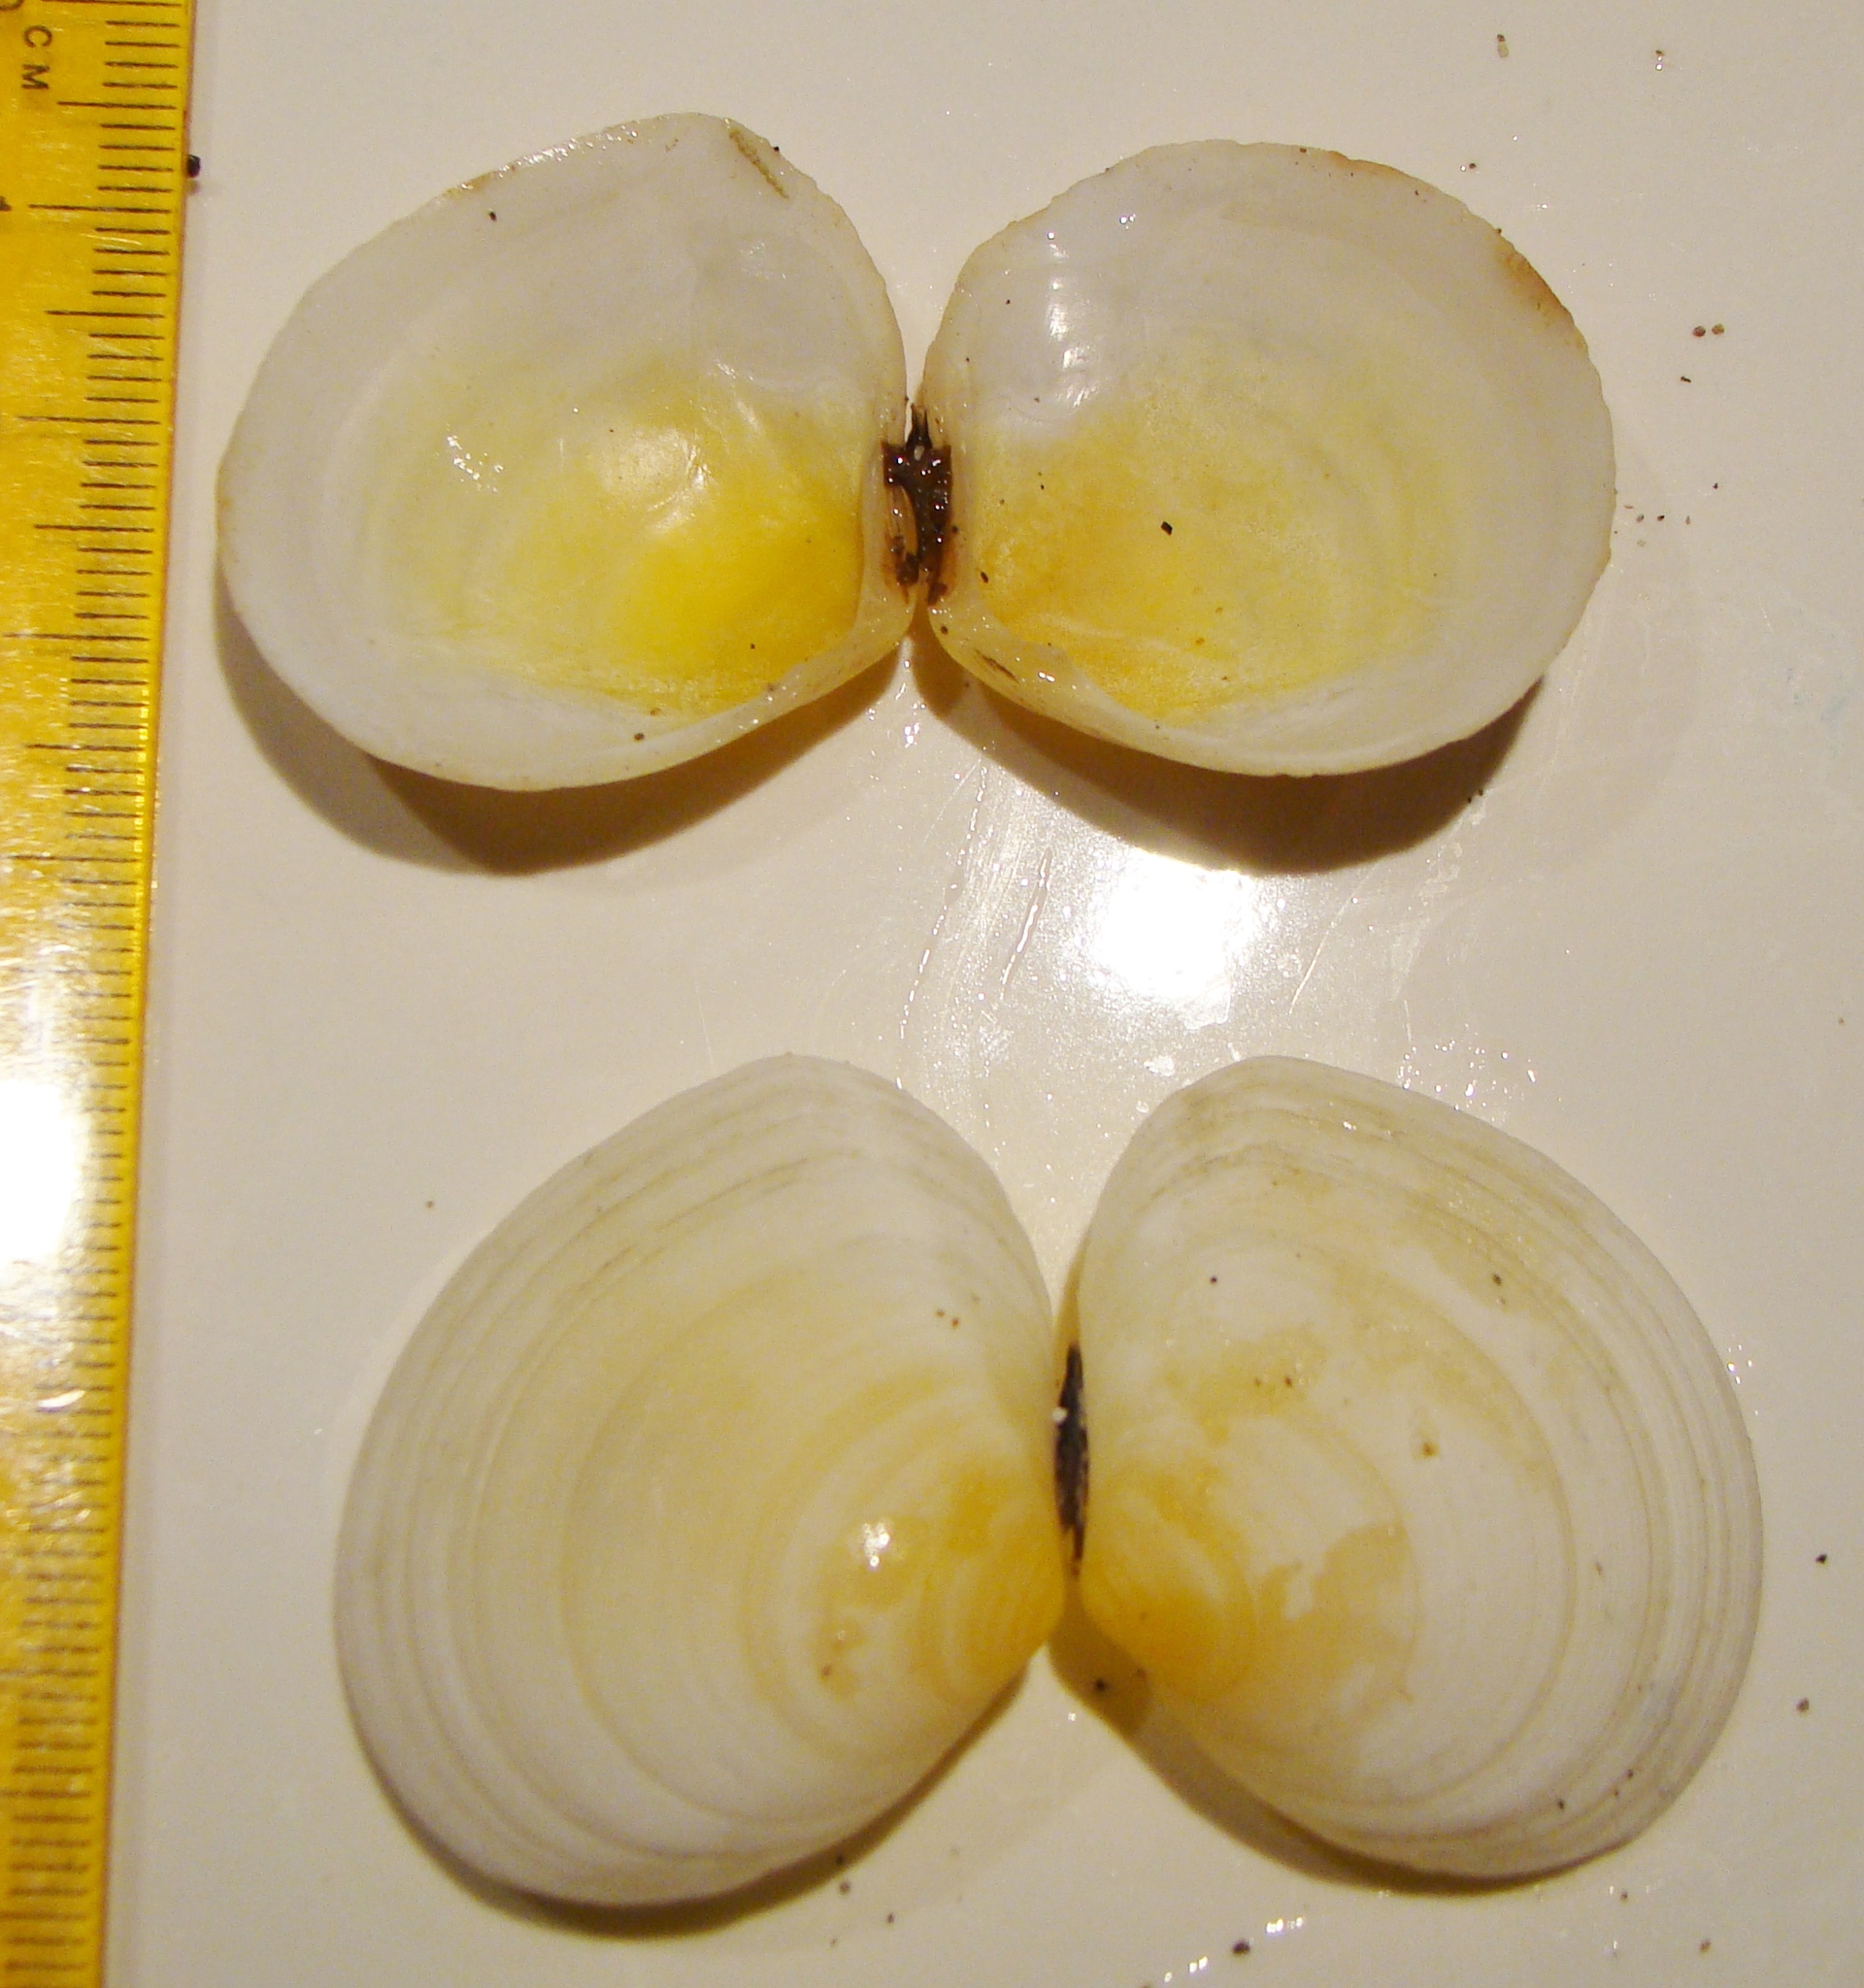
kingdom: Animalia
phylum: Mollusca
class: Bivalvia
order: Cardiida
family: Tellinidae
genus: Pseudarcopagia
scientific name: Pseudarcopagia disculus
